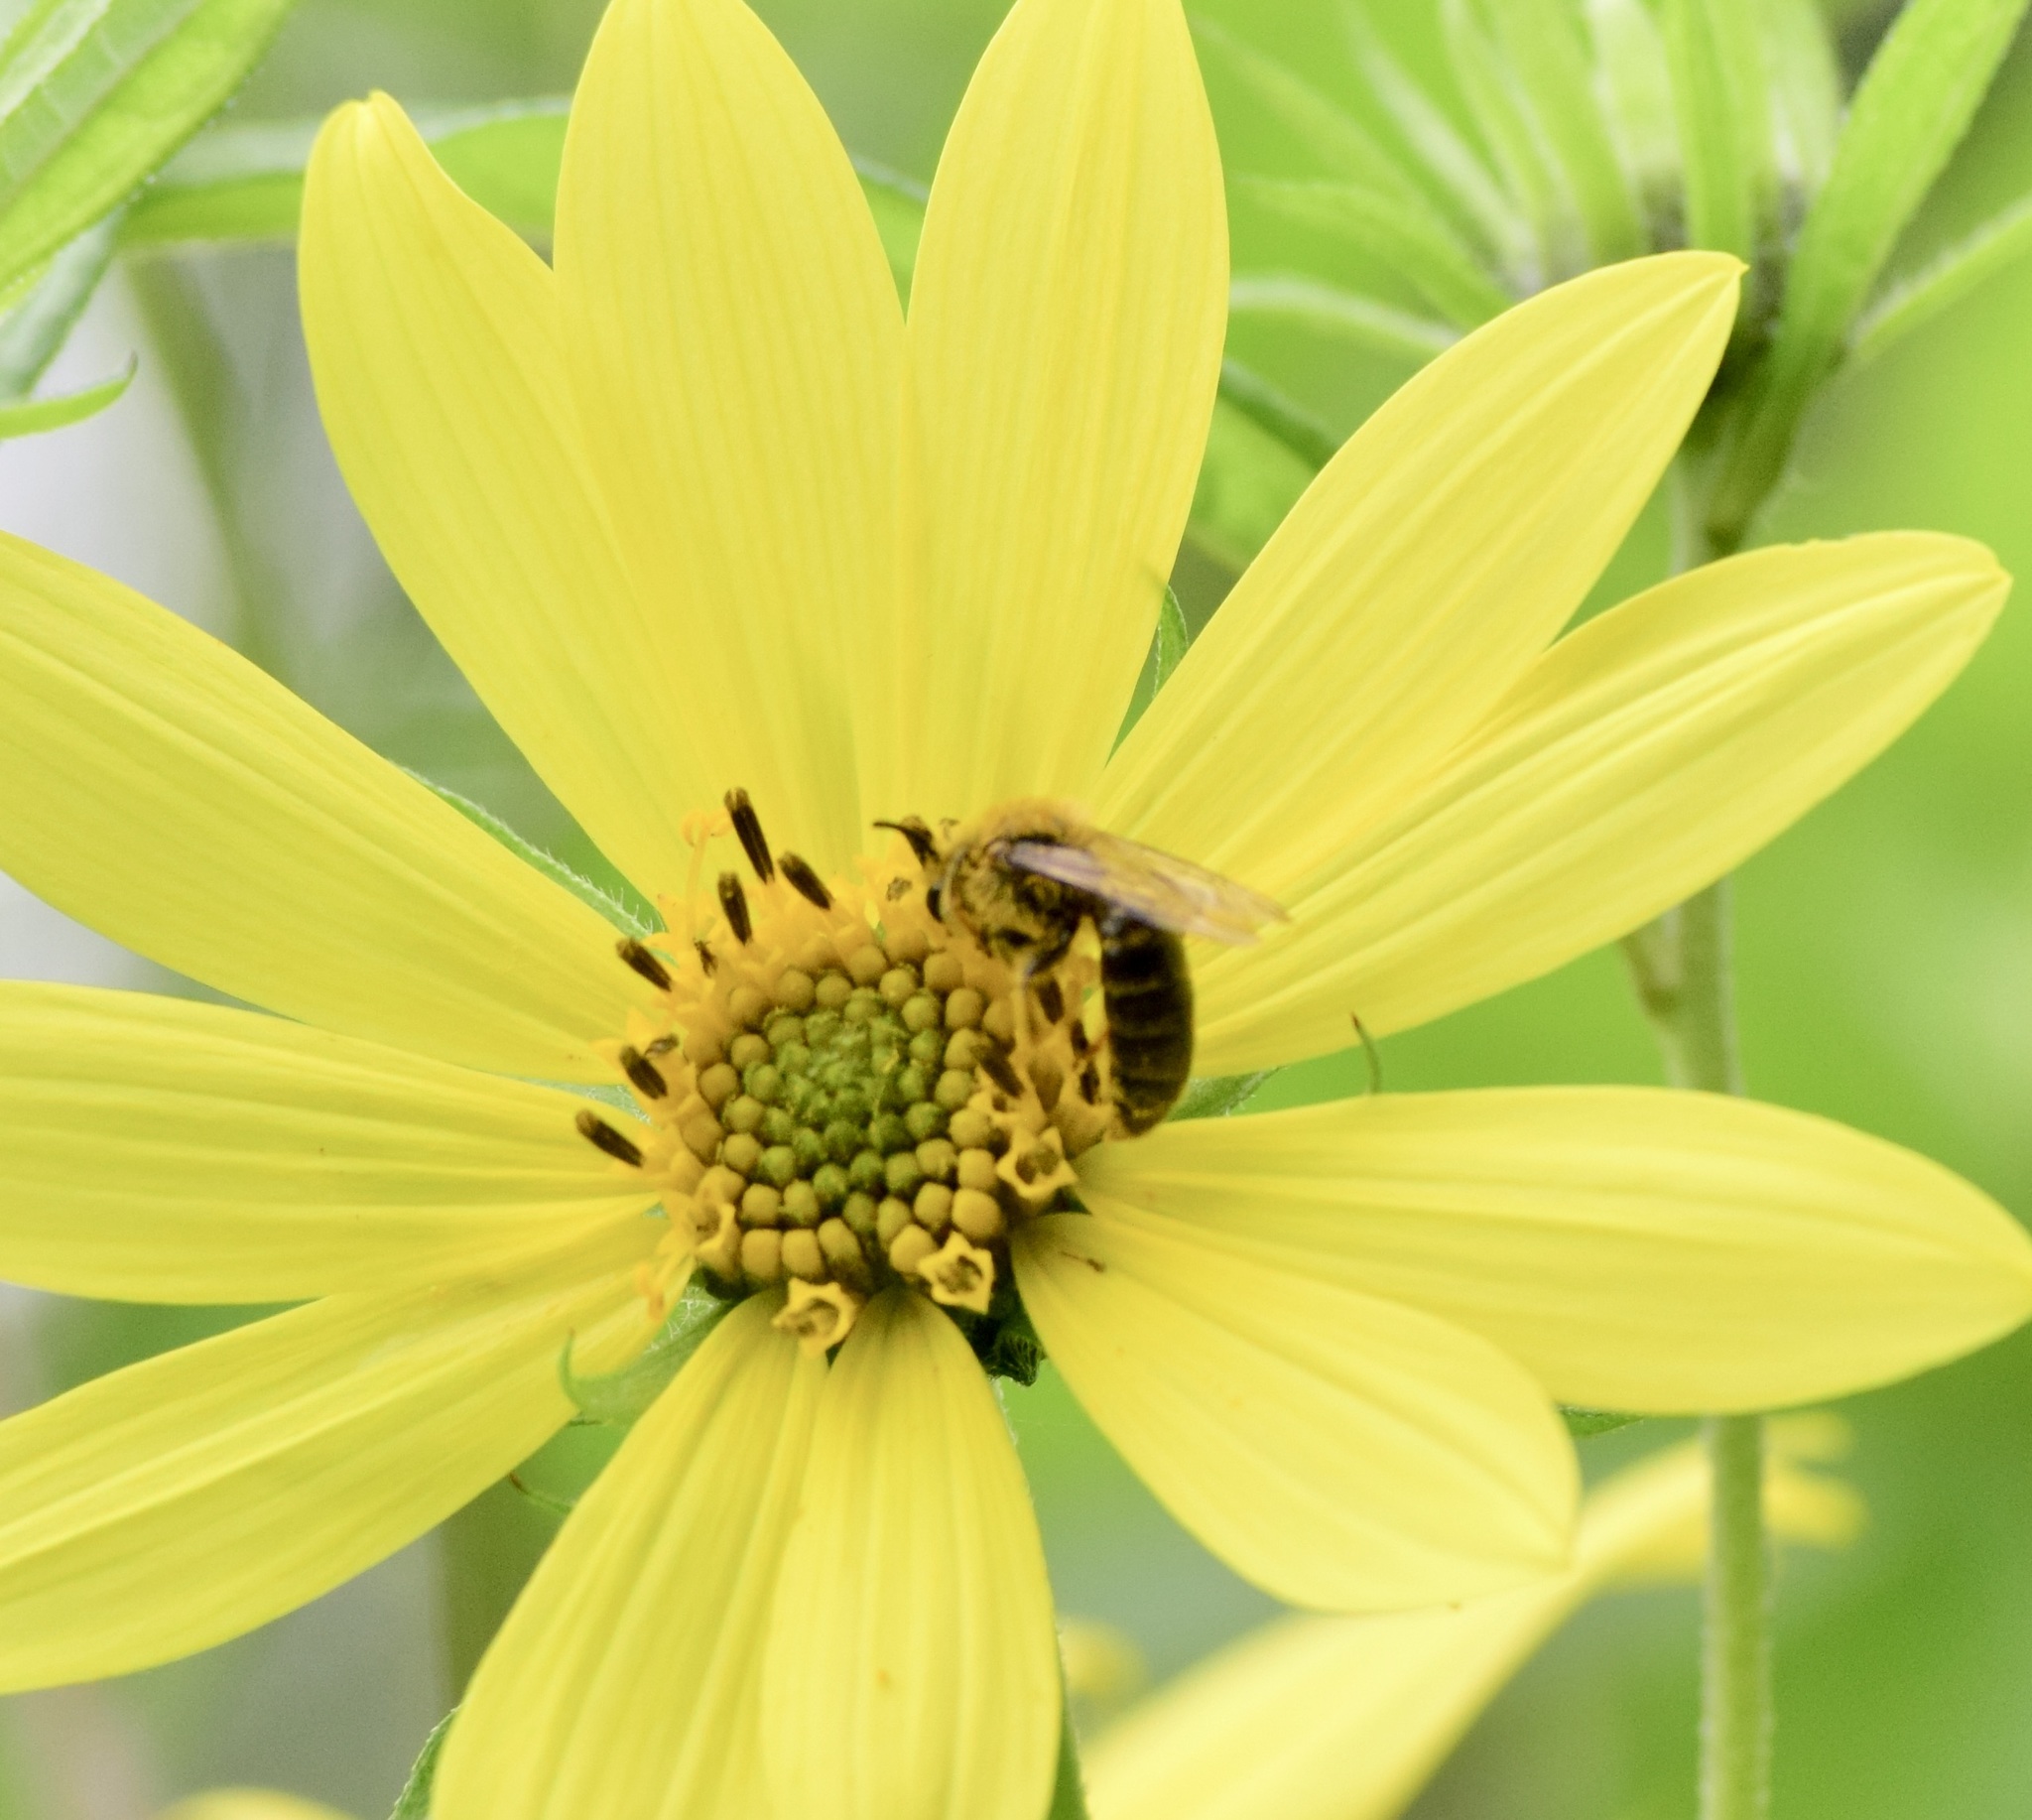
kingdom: Animalia
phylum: Arthropoda
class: Insecta
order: Hymenoptera
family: Andrenidae
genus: Andrena
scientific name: Andrena helianthi
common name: Sunflower mining bee
